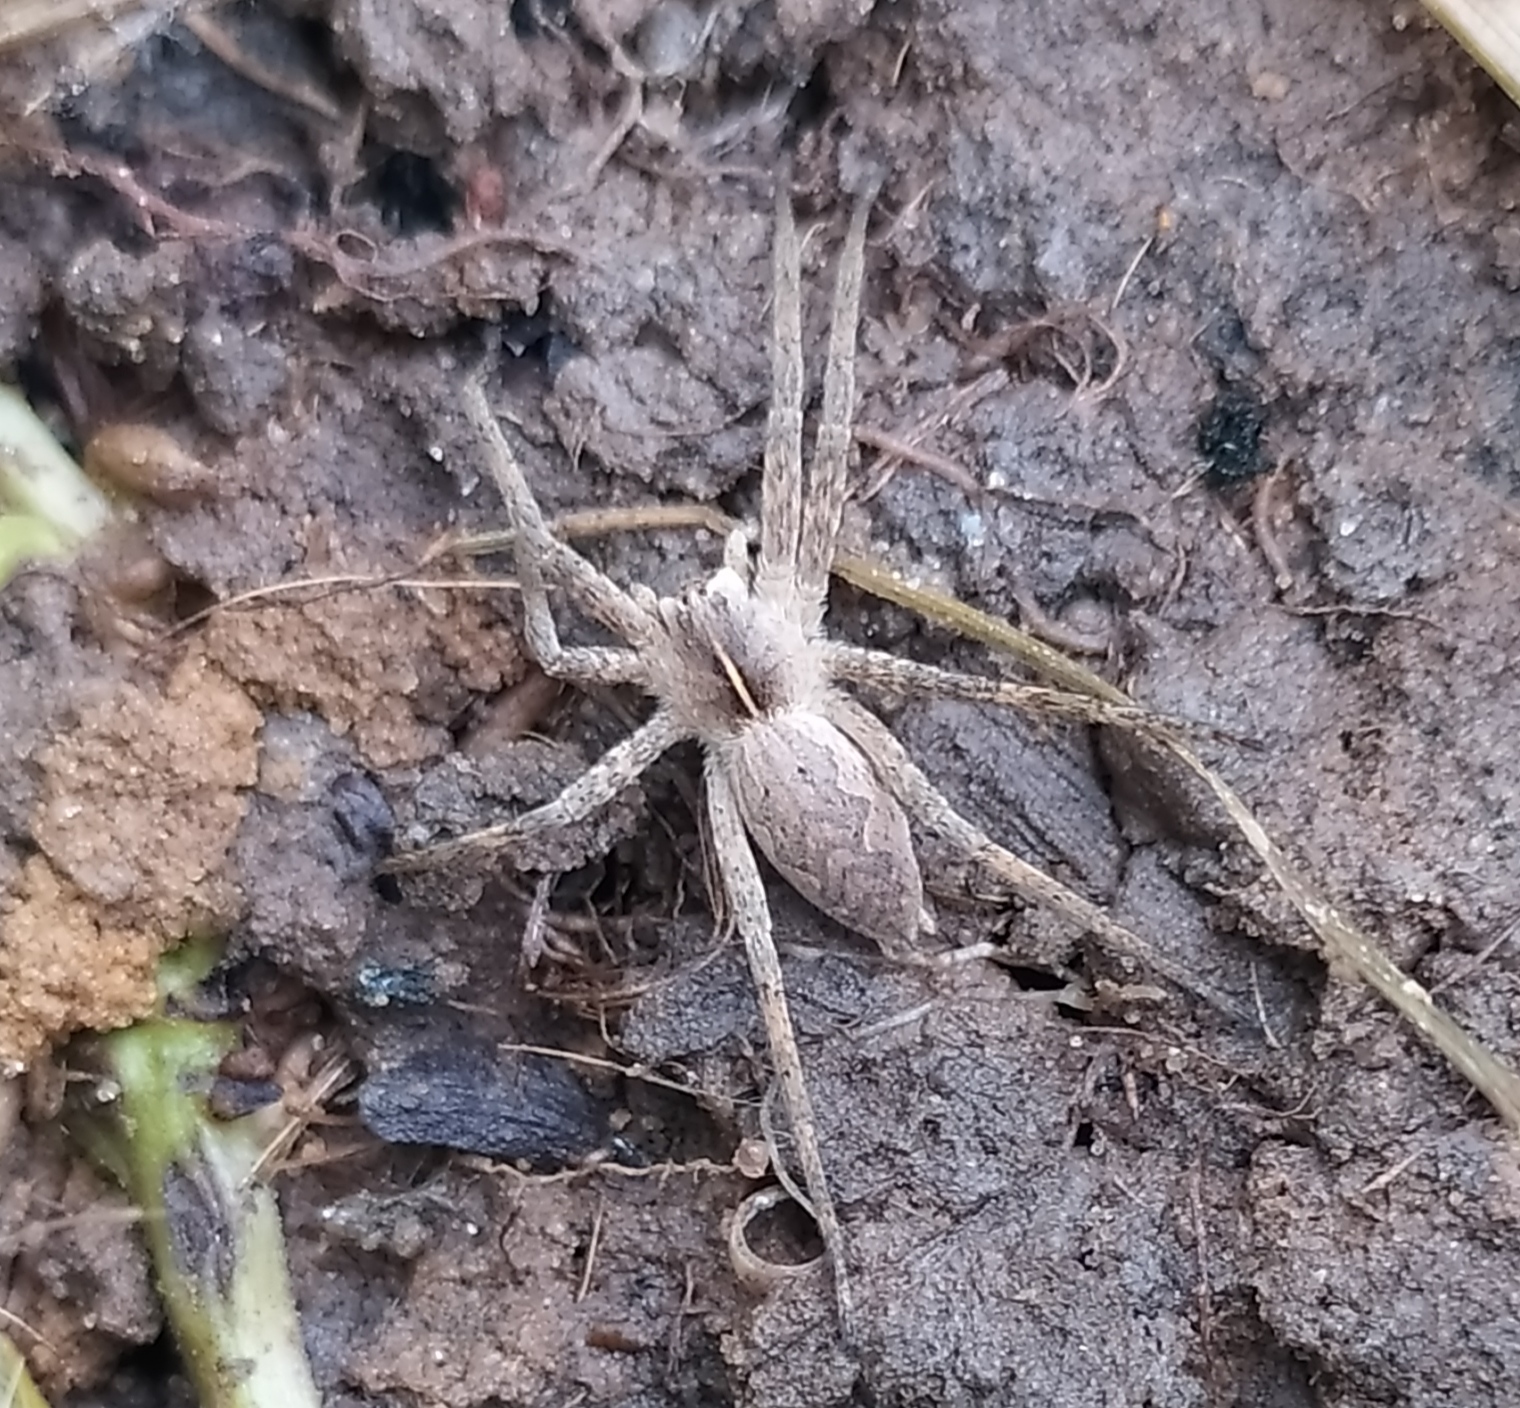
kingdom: Animalia
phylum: Arthropoda
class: Arachnida
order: Araneae
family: Pisauridae
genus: Pisaura
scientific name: Pisaura mirabilis
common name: Tent spider
